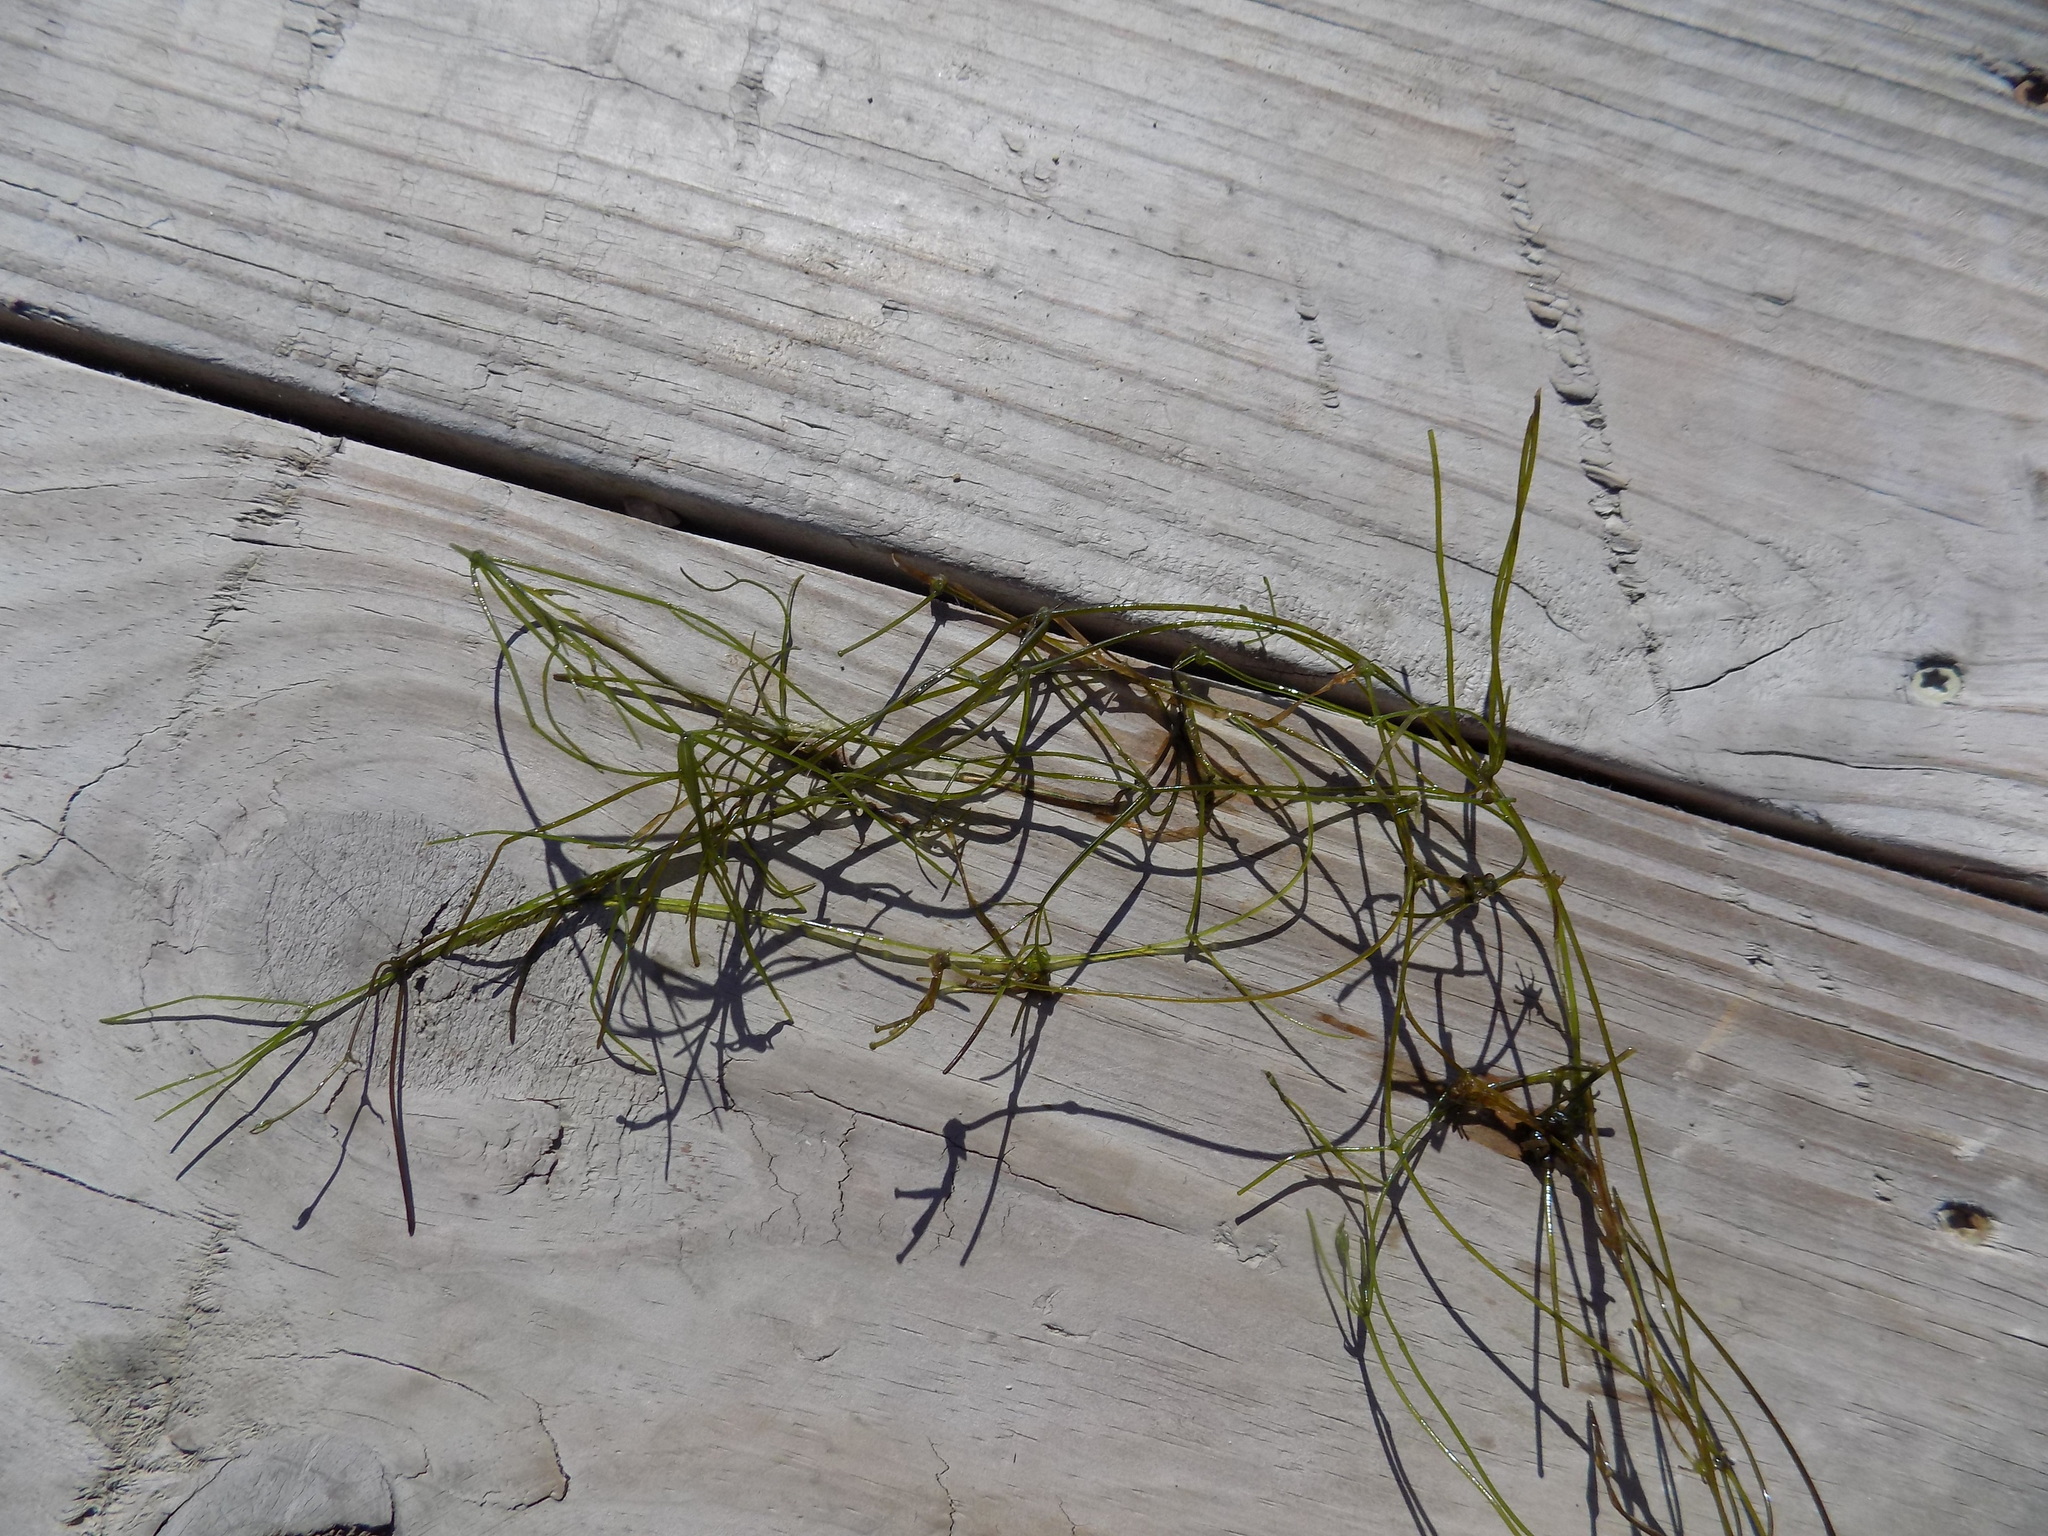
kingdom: Plantae
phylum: Charophyta
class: Charophyceae
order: Charales
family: Characeae
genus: Nitellopsis
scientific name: Nitellopsis obtusa
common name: Starry stonewort
